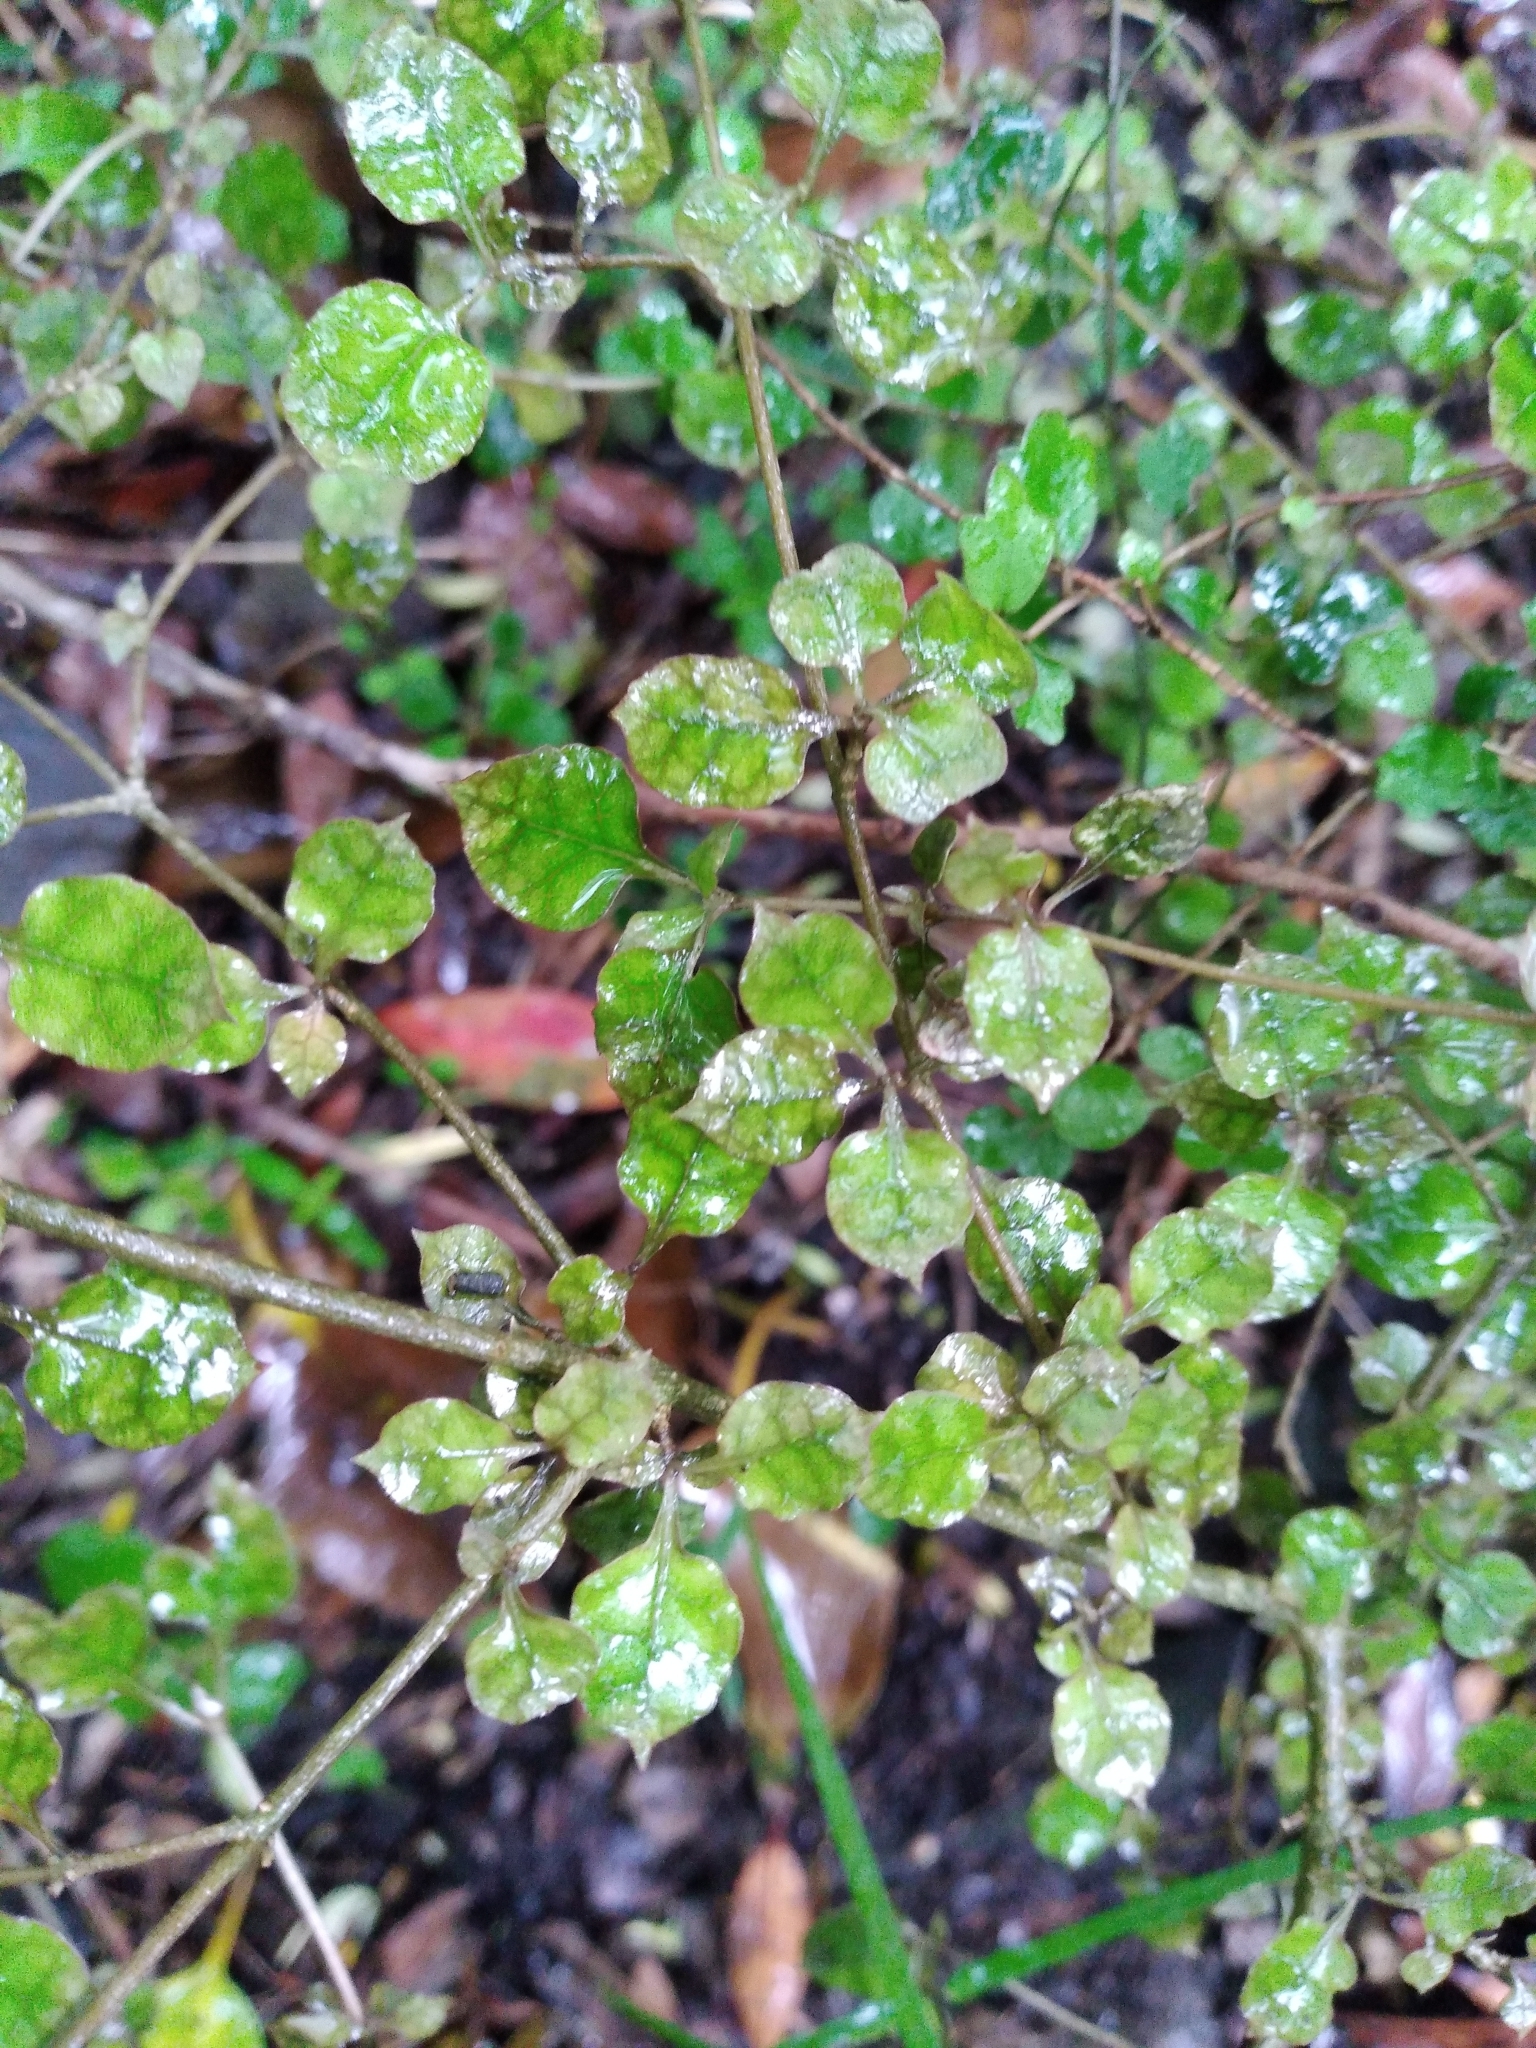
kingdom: Plantae
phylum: Tracheophyta
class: Magnoliopsida
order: Gentianales
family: Rubiaceae
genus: Coprosma
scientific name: Coprosma areolata
